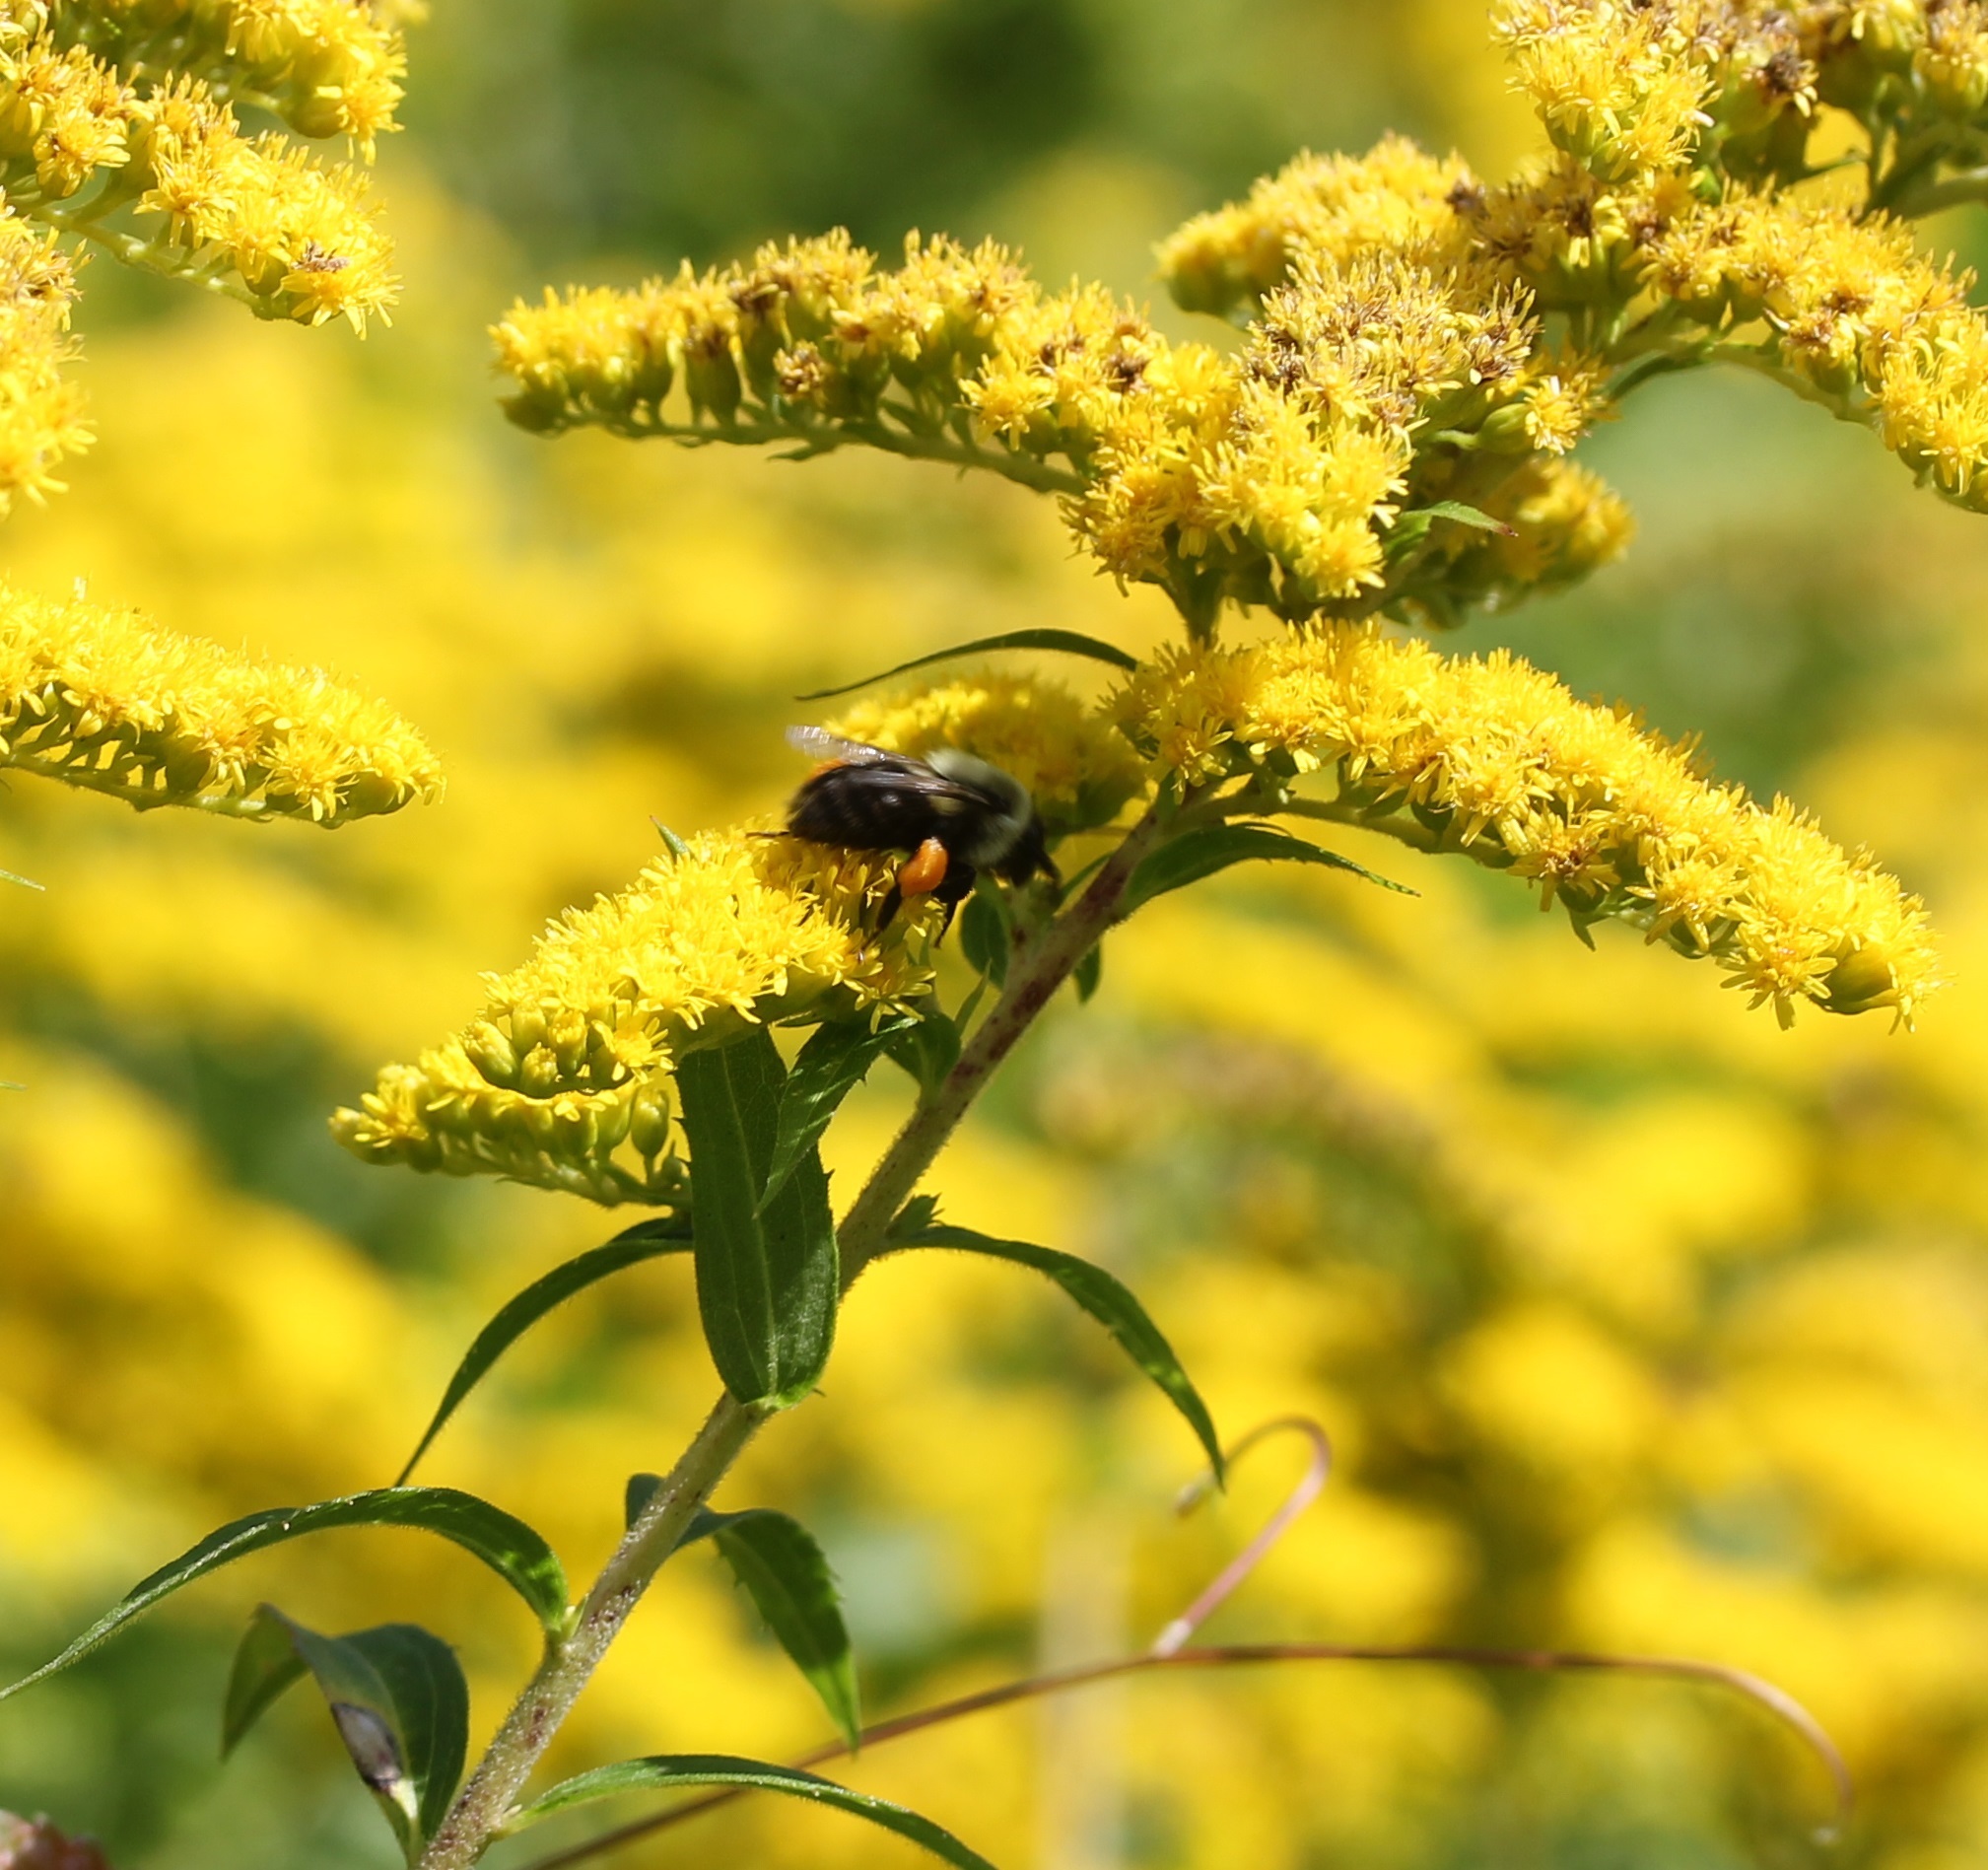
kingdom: Animalia
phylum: Arthropoda
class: Insecta
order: Hymenoptera
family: Apidae
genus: Bombus
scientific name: Bombus impatiens
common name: Common eastern bumble bee
